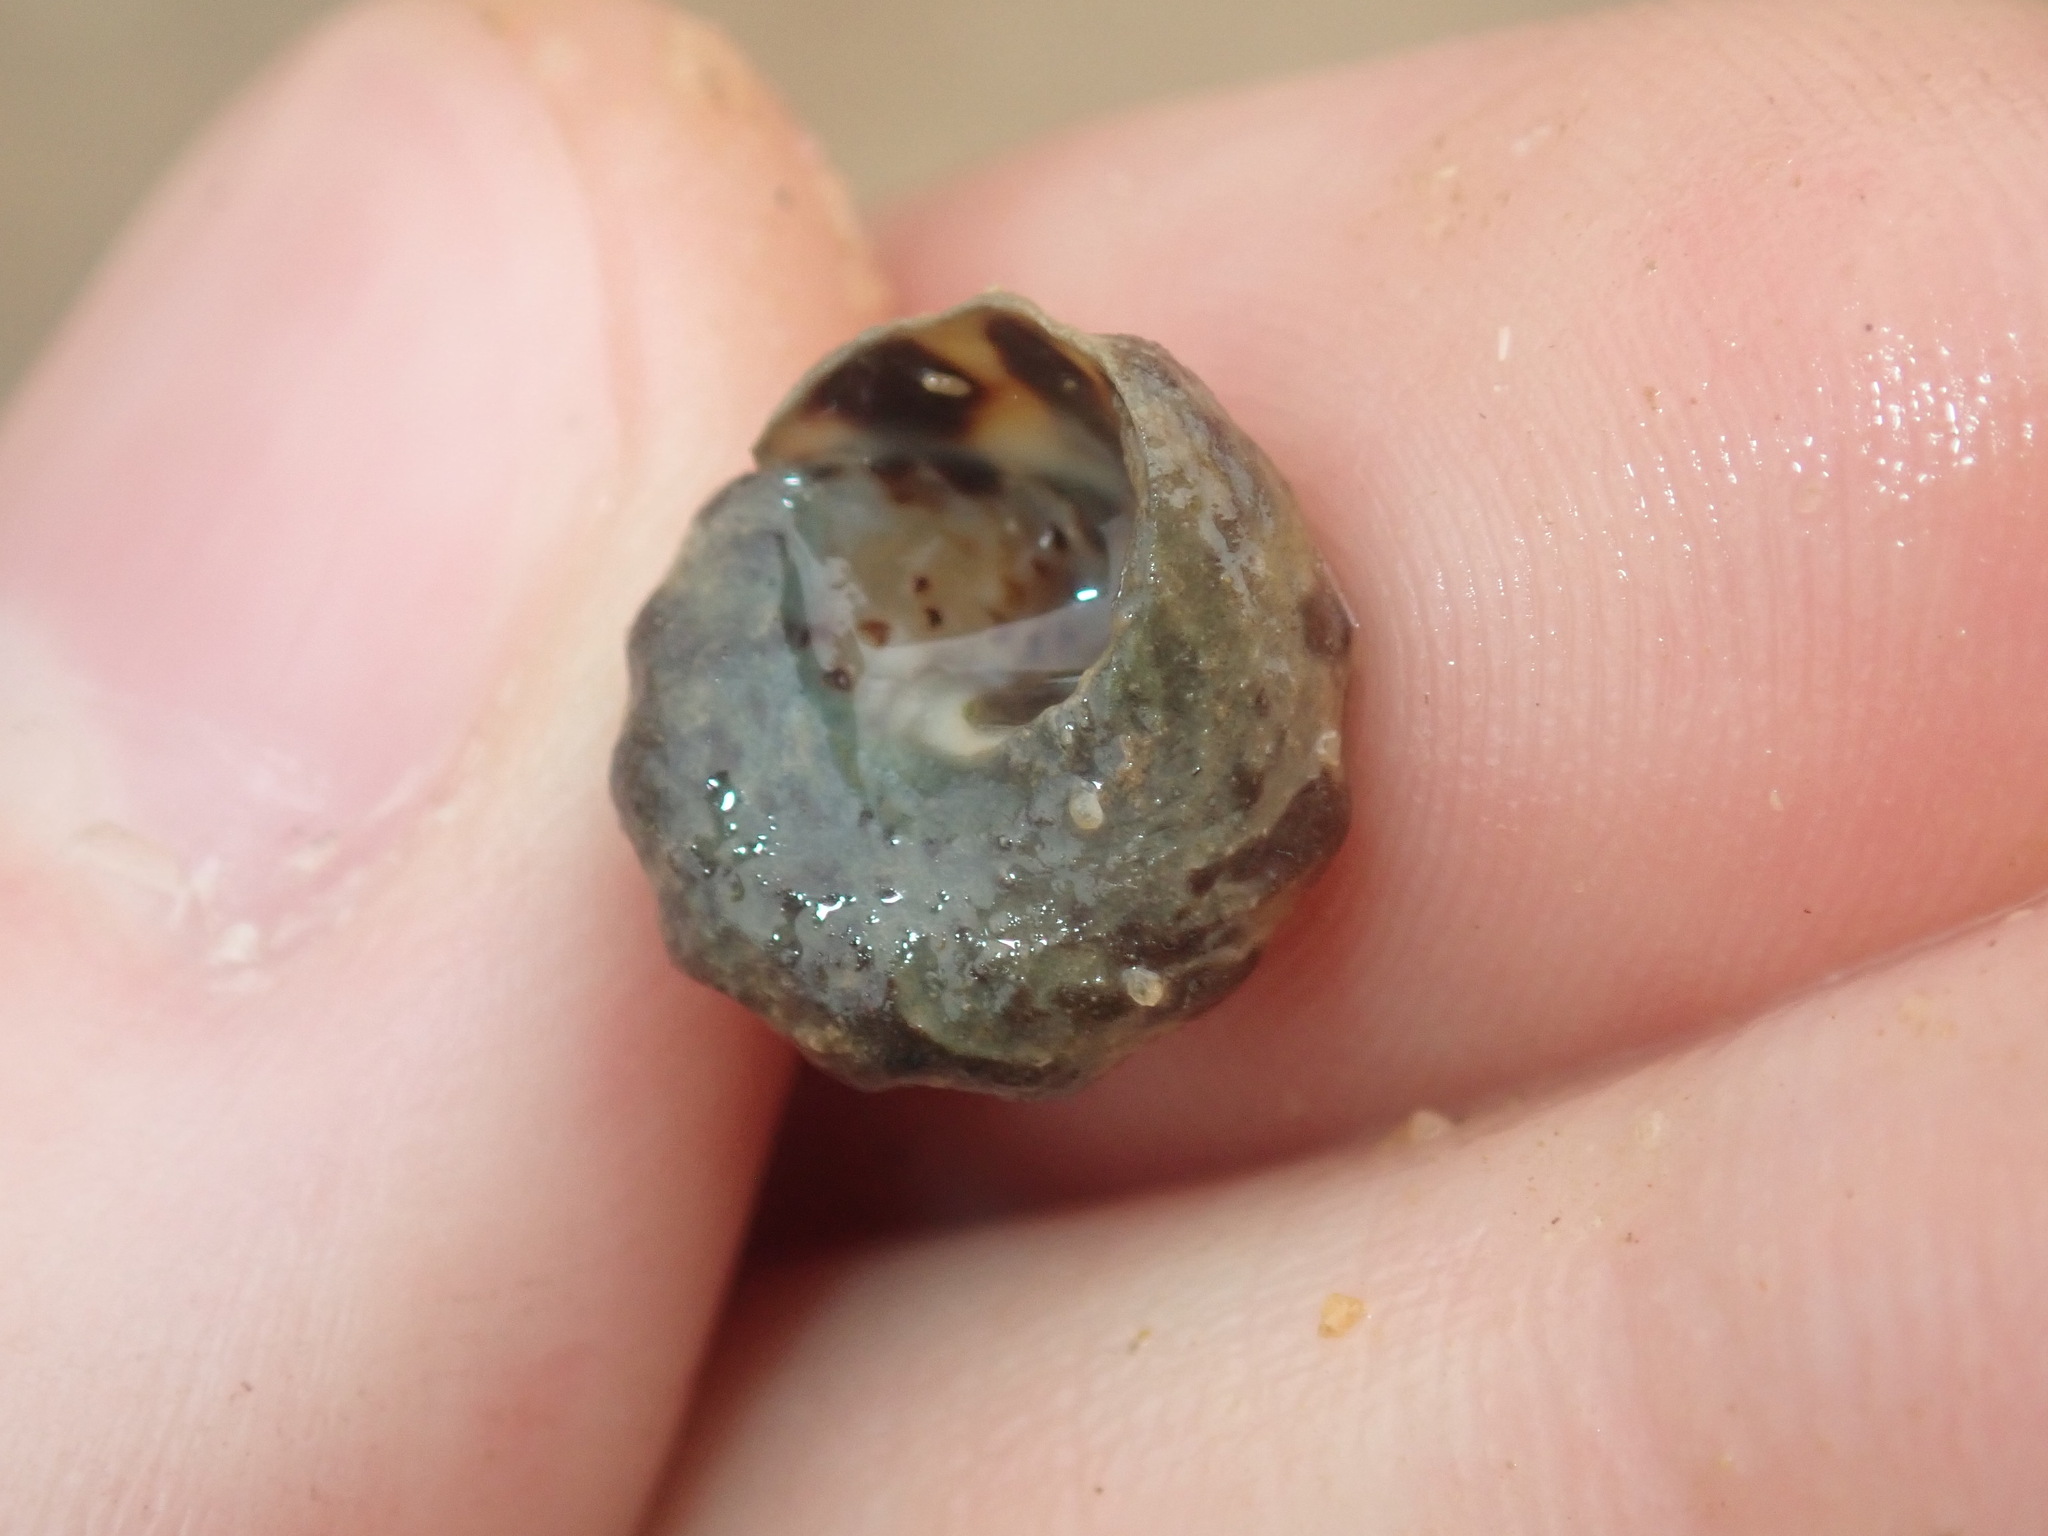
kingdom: Animalia
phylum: Mollusca
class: Gastropoda
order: Littorinimorpha
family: Littorinidae
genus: Bembicium
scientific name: Bembicium auratum
